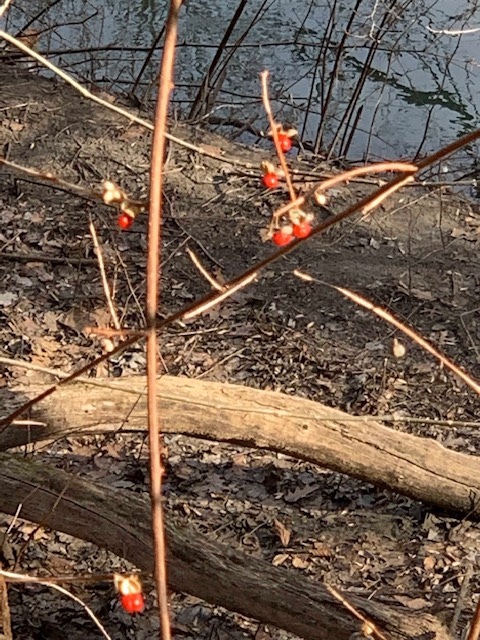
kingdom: Plantae
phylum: Tracheophyta
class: Magnoliopsida
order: Celastrales
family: Celastraceae
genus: Celastrus
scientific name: Celastrus orbiculatus
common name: Oriental bittersweet
